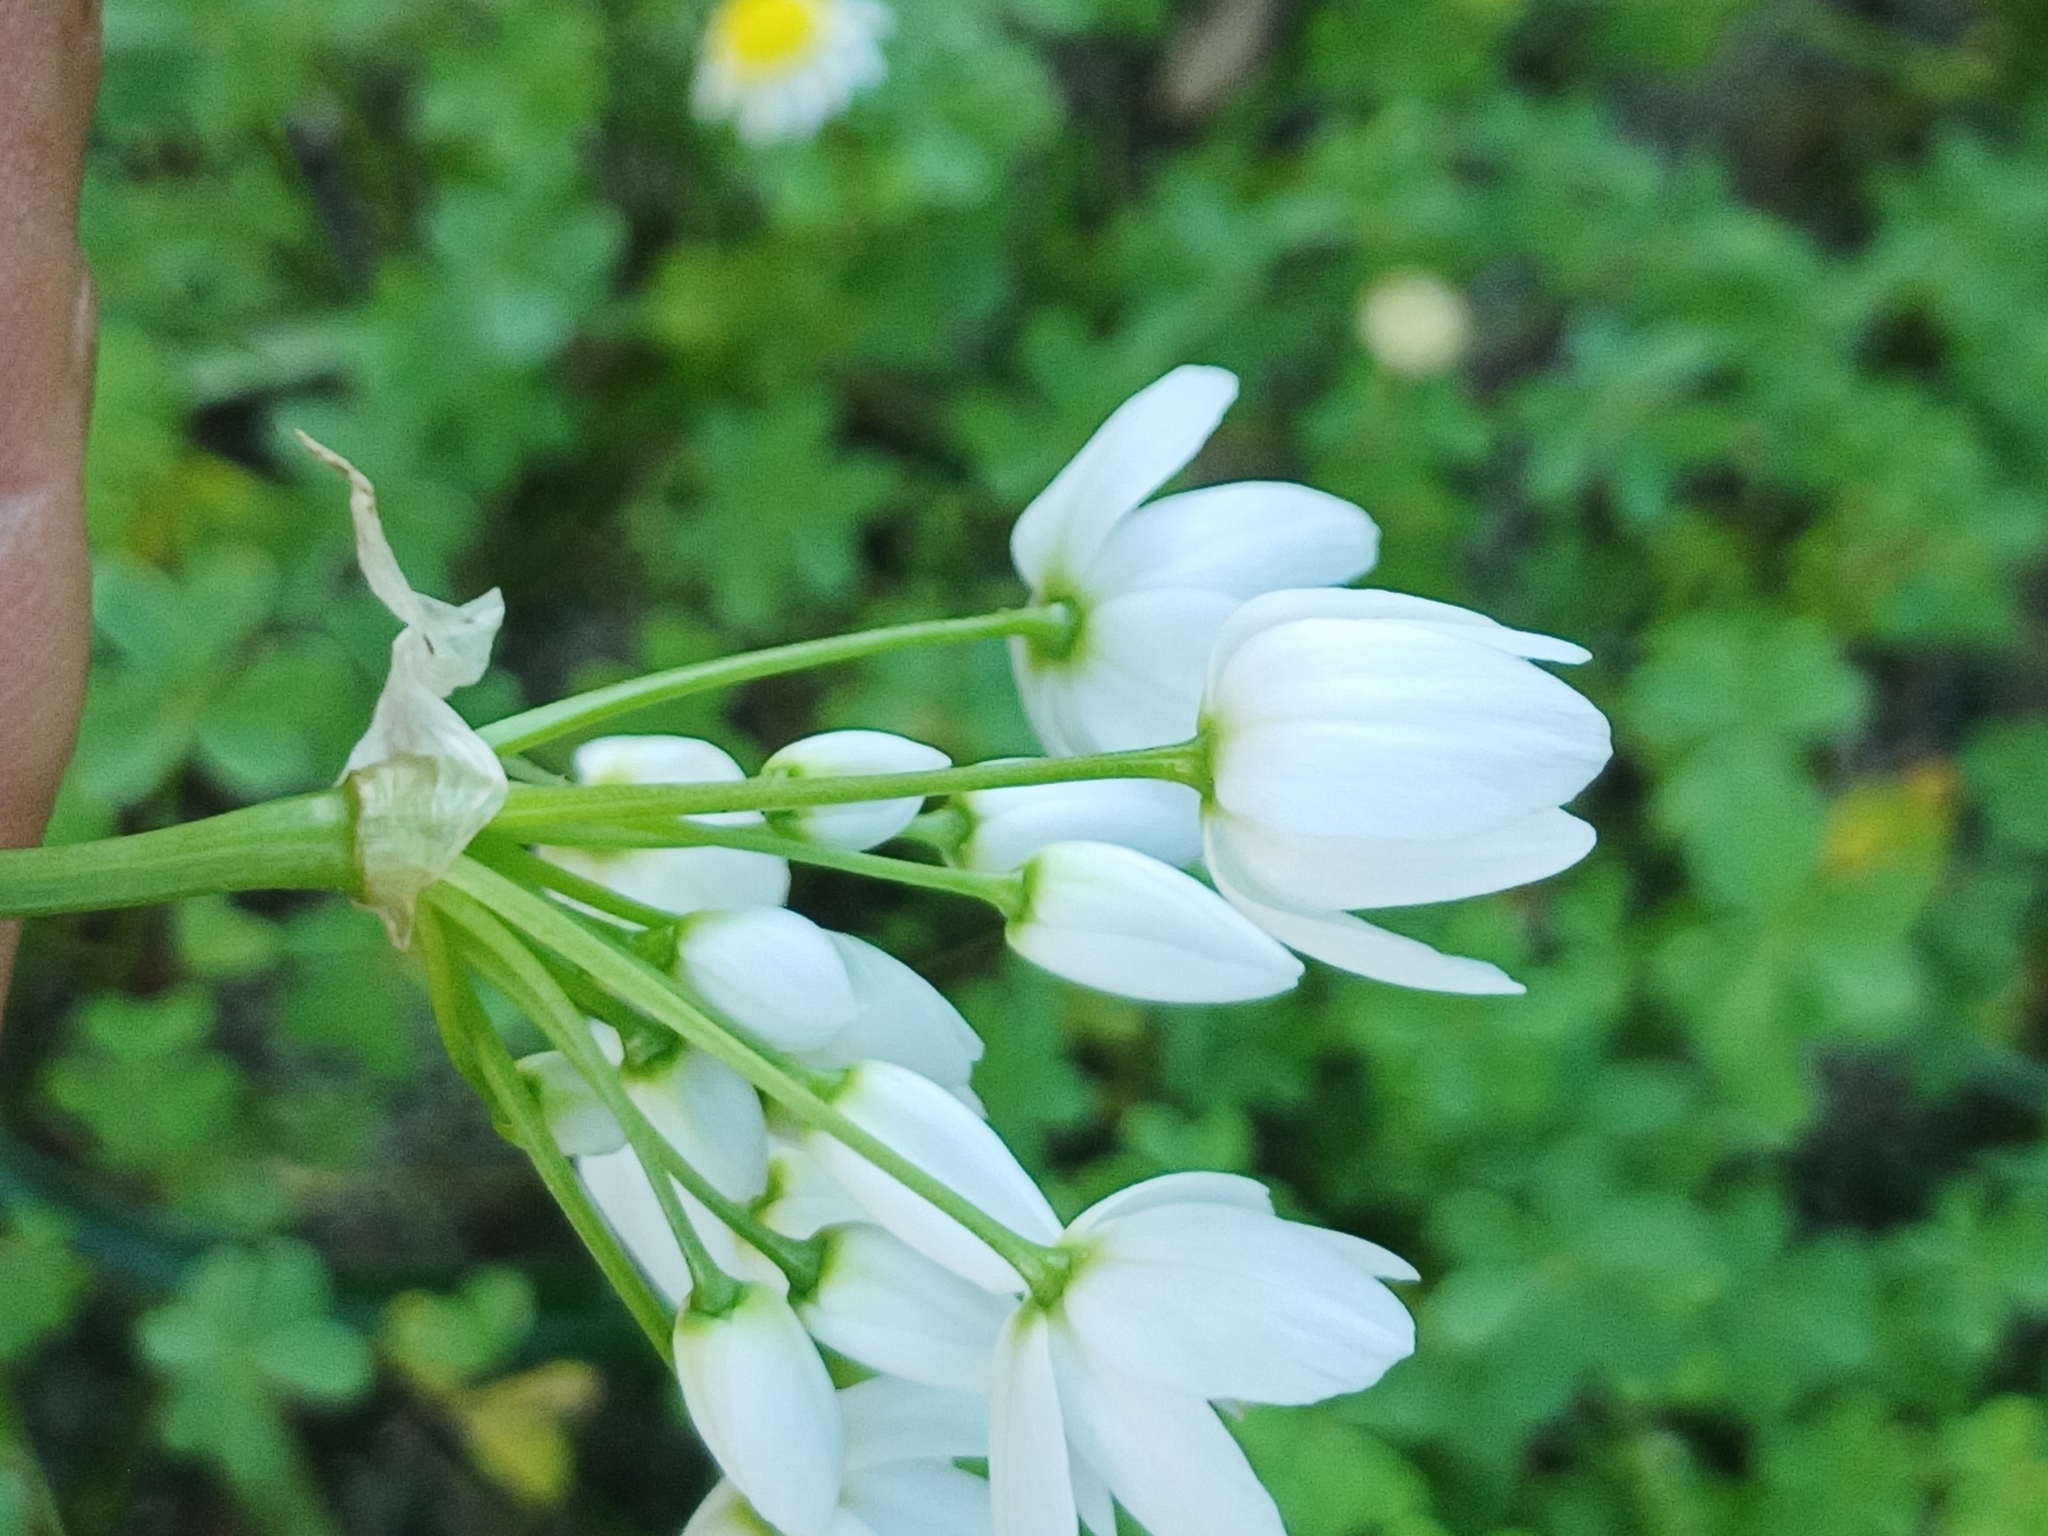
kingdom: Plantae
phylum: Tracheophyta
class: Liliopsida
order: Asparagales
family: Amaryllidaceae
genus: Allium
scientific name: Allium neapolitanum
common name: Neapolitan garlic
